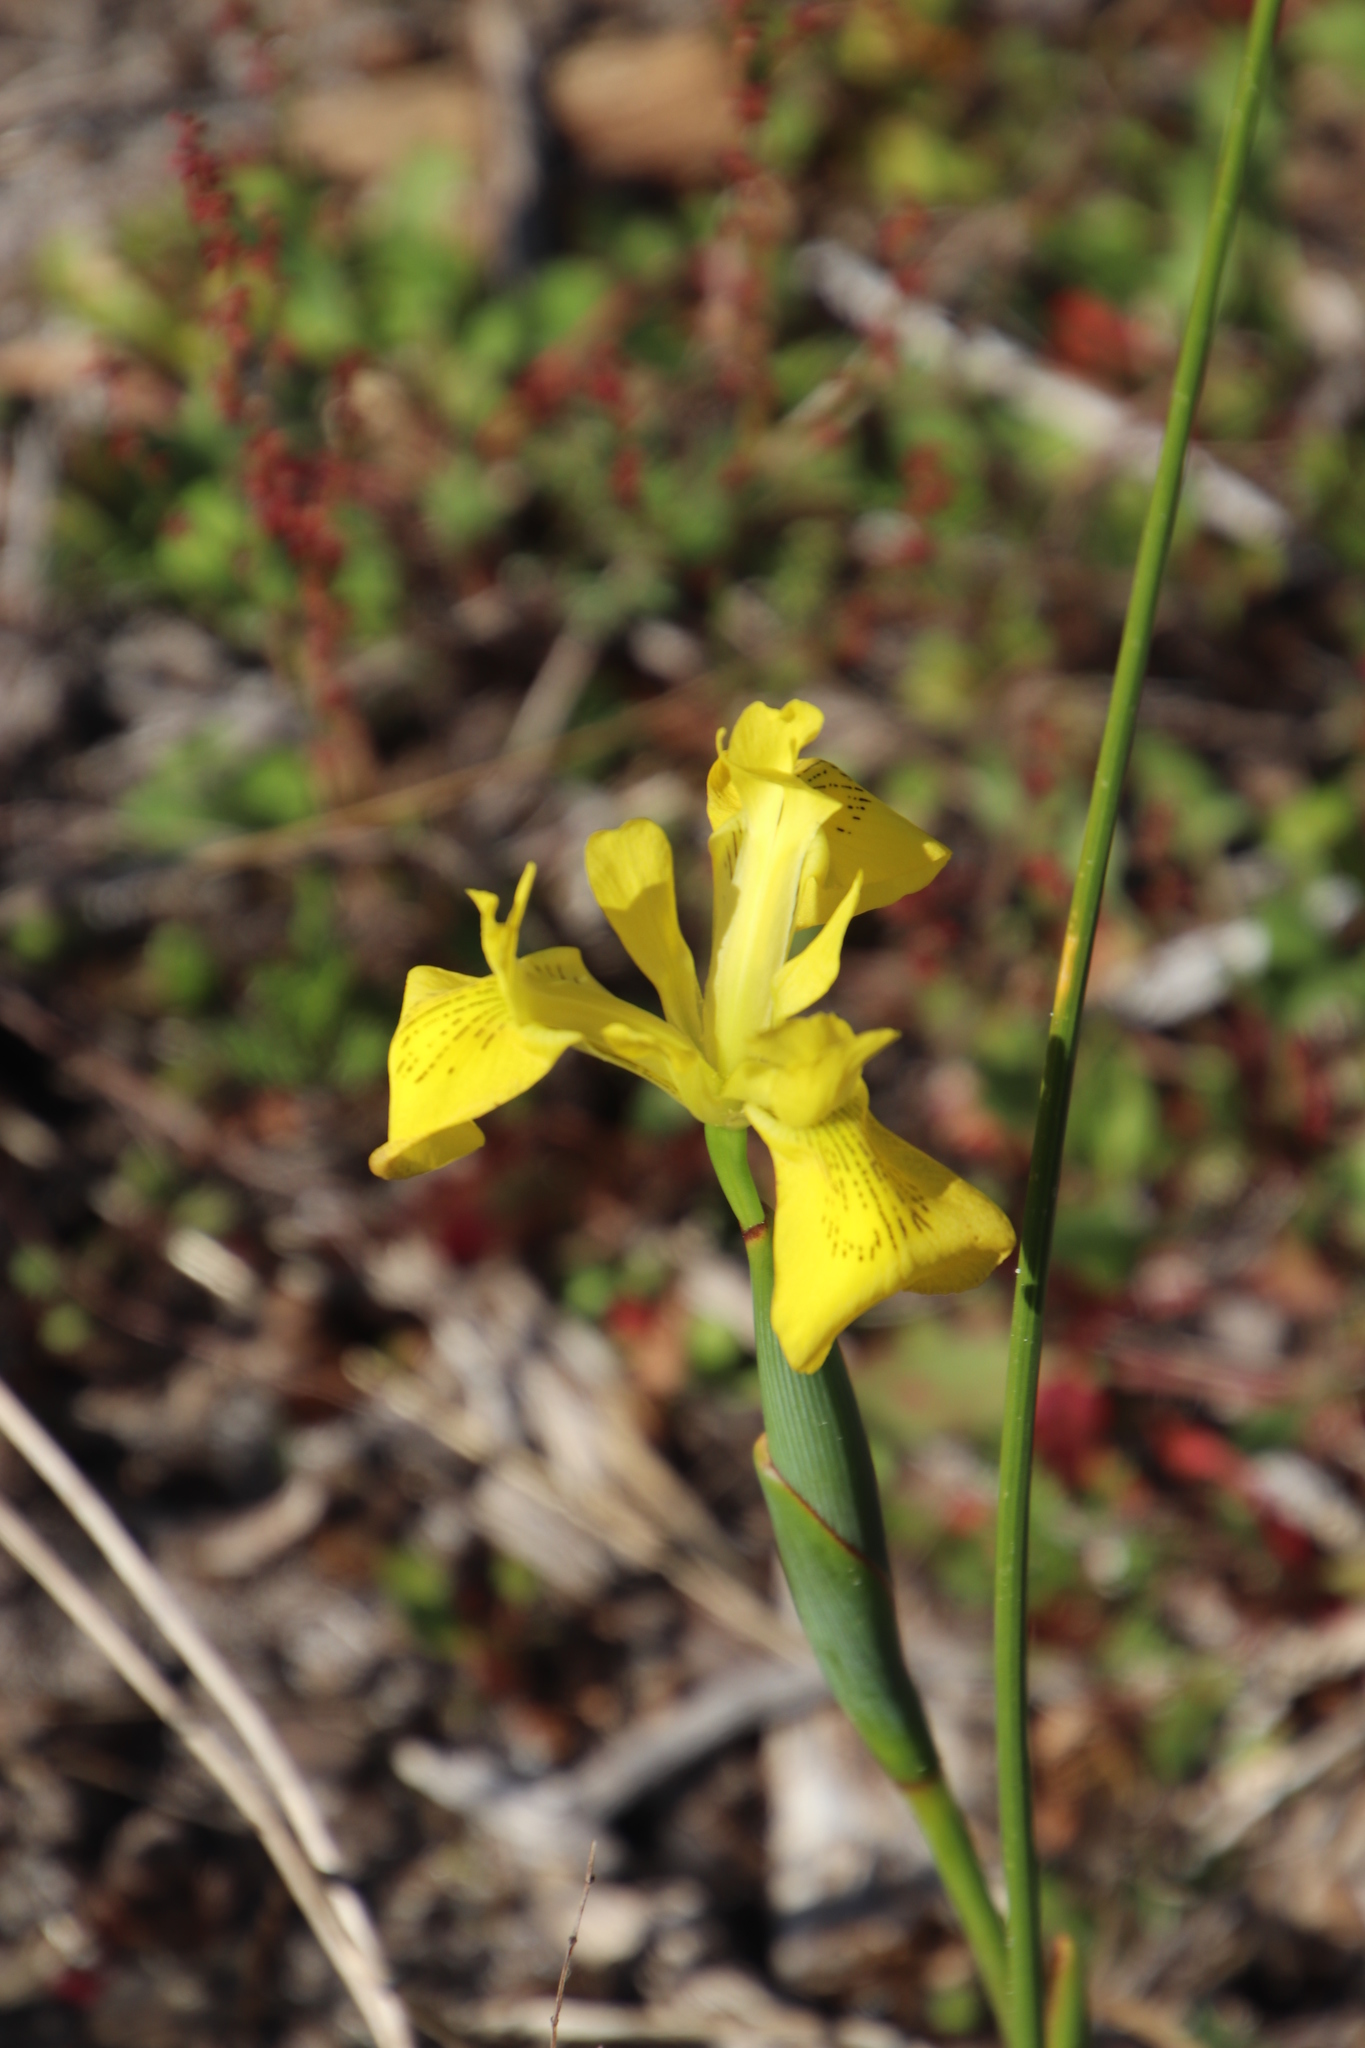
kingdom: Plantae
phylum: Tracheophyta
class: Liliopsida
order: Asparagales
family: Iridaceae
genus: Moraea
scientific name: Moraea neglecta
